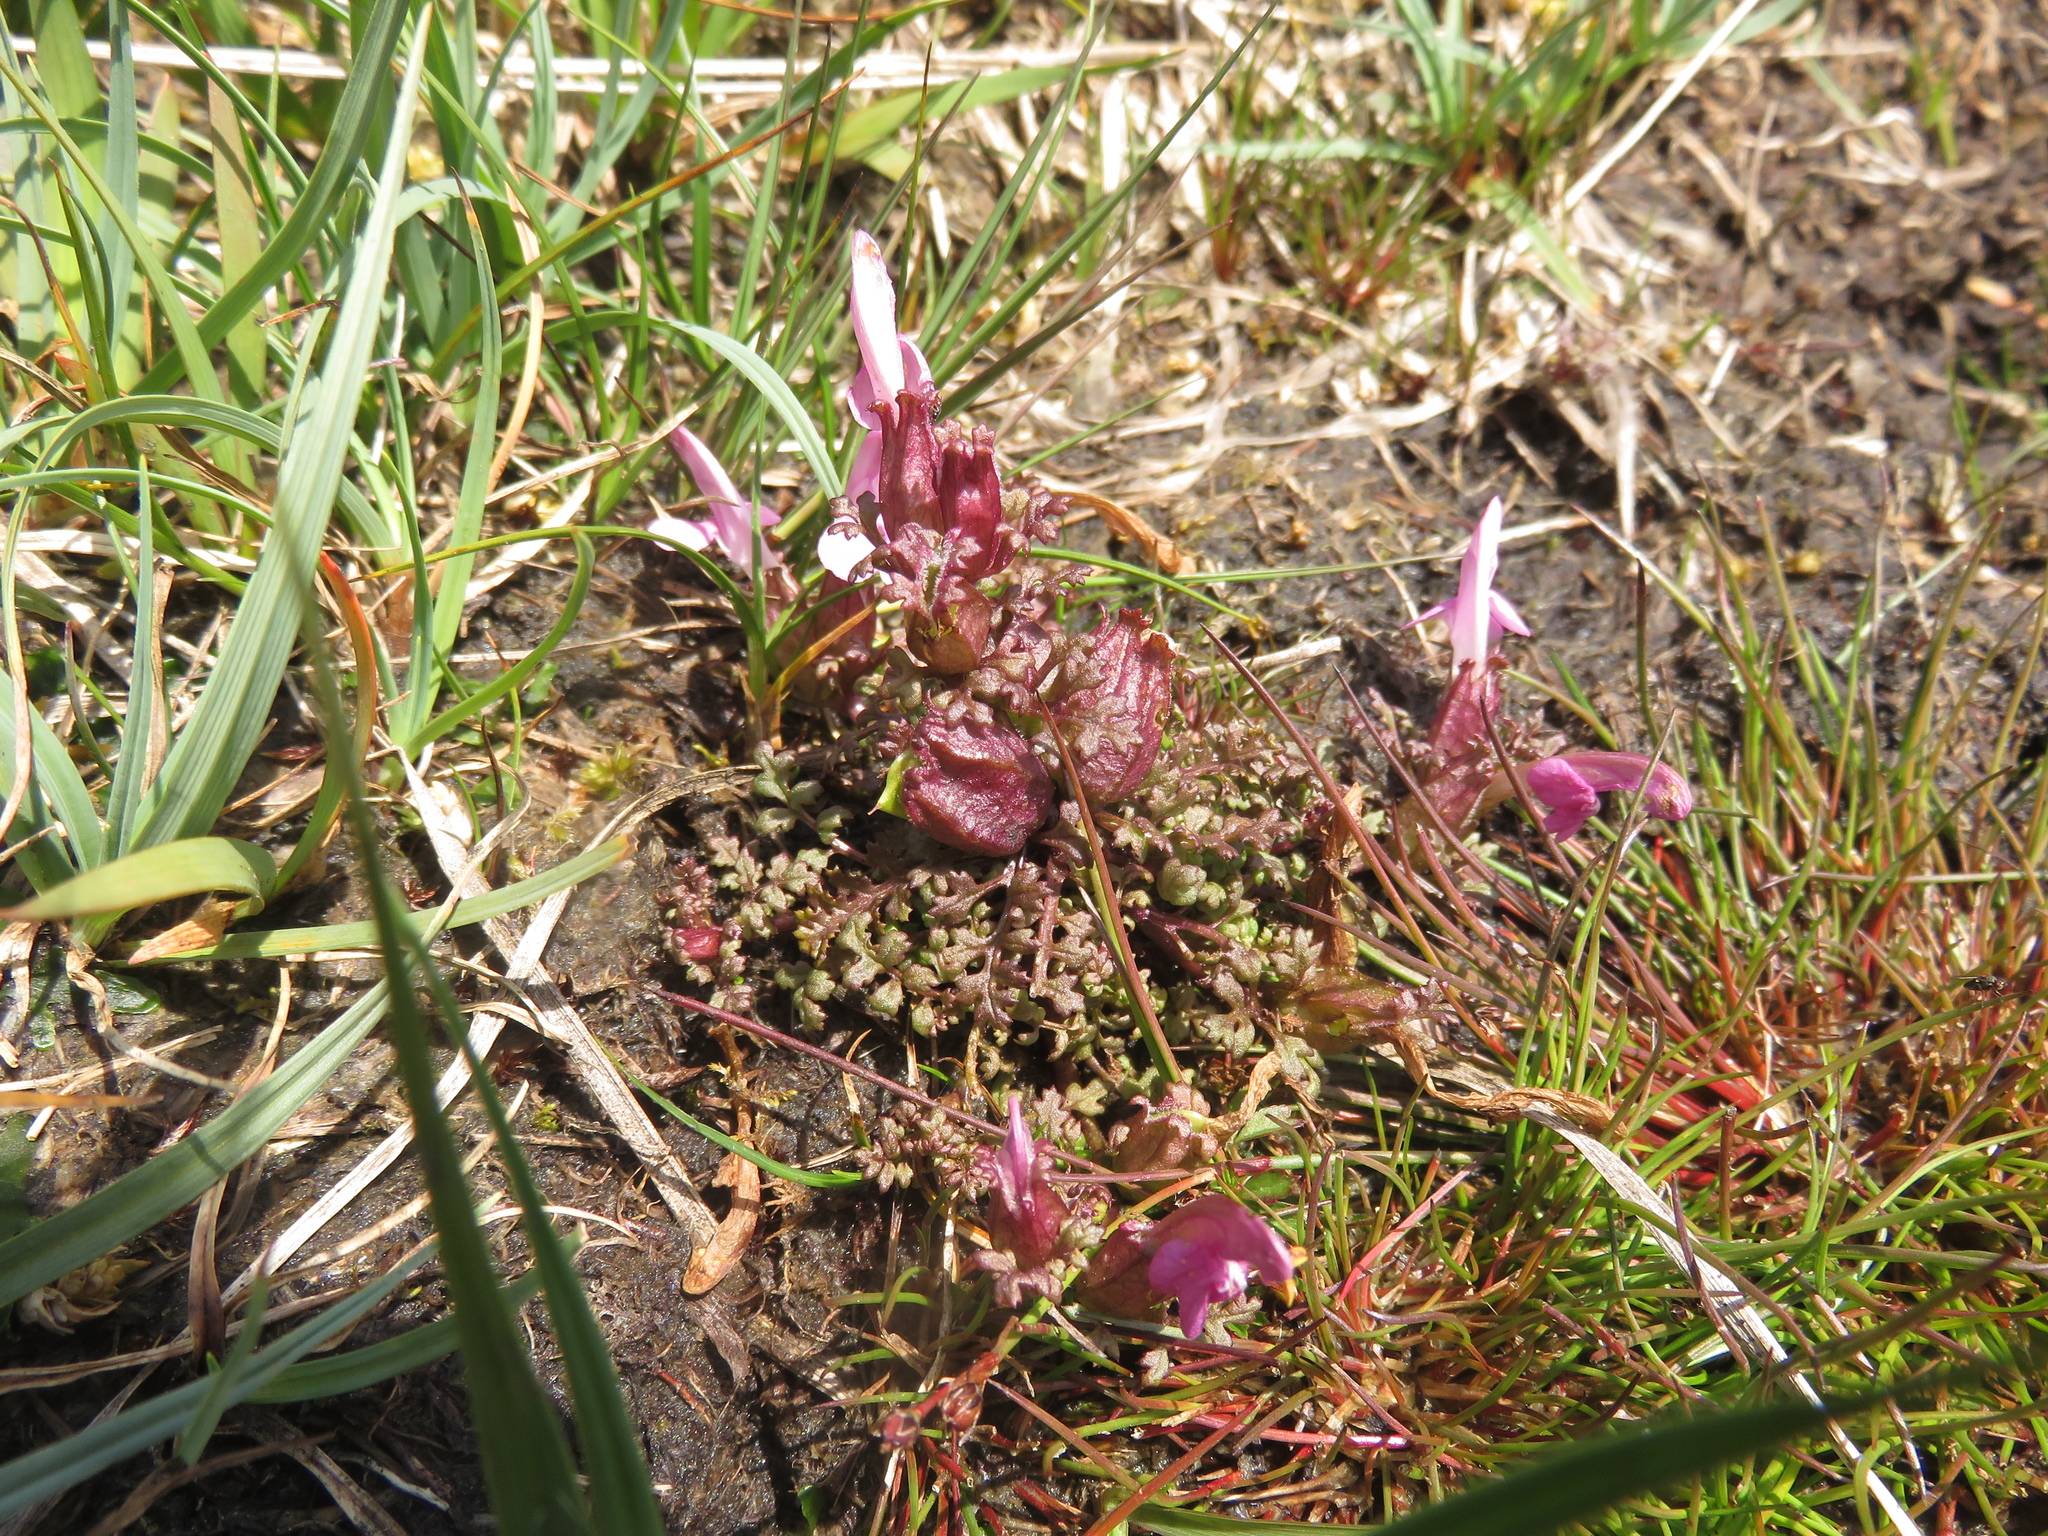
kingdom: Plantae
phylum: Tracheophyta
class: Magnoliopsida
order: Lamiales
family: Orobanchaceae
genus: Pedicularis
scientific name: Pedicularis sylvatica
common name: Lousewort
